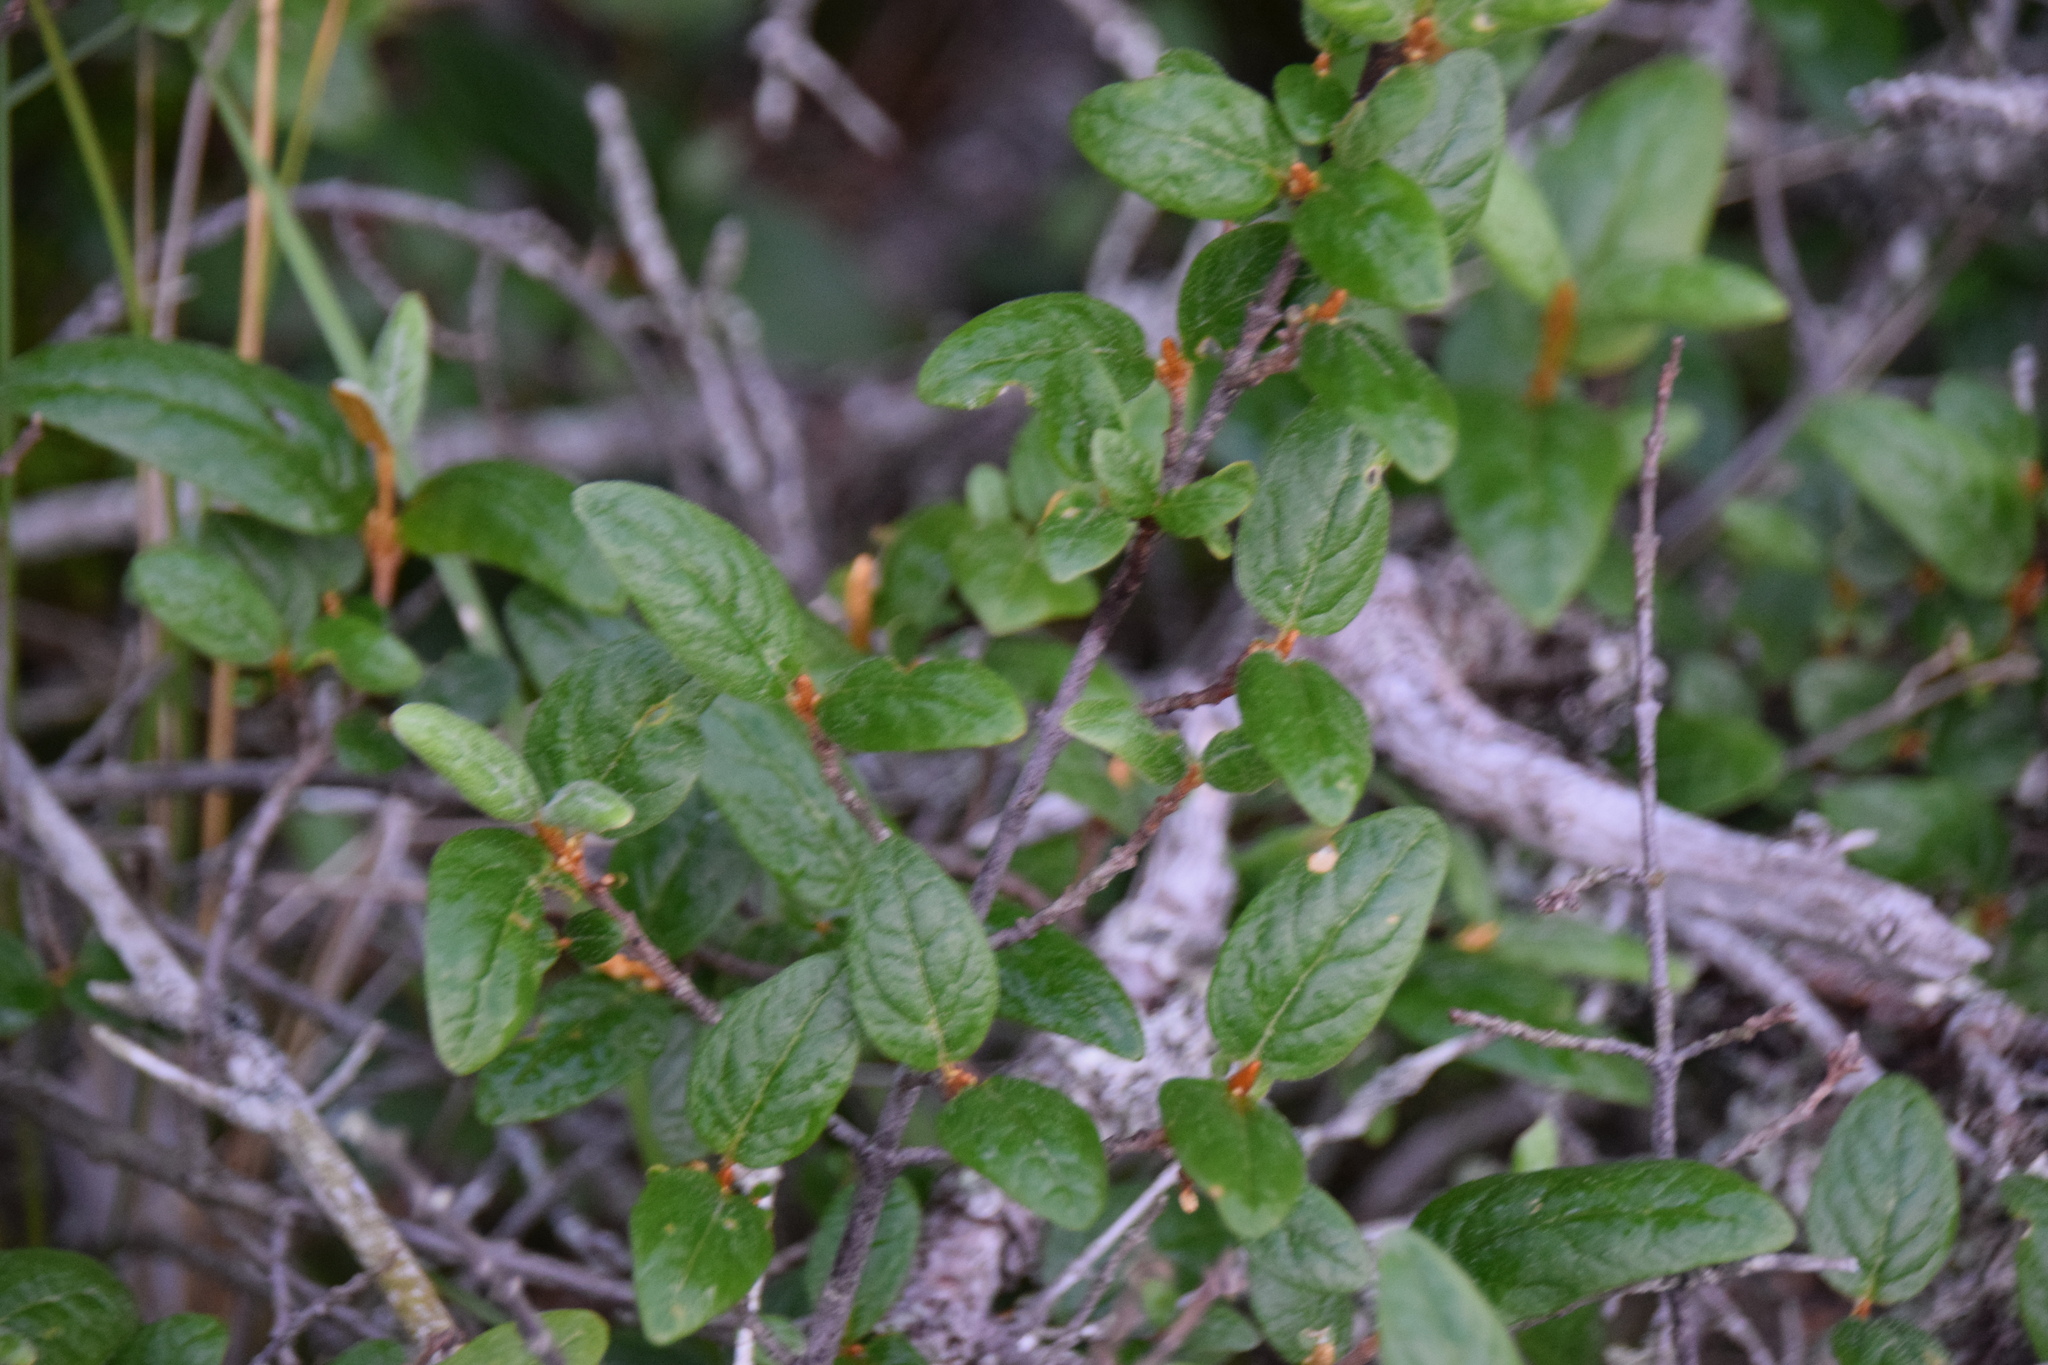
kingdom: Plantae
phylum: Tracheophyta
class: Magnoliopsida
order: Rosales
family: Elaeagnaceae
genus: Shepherdia
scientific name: Shepherdia canadensis
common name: Soapberry
